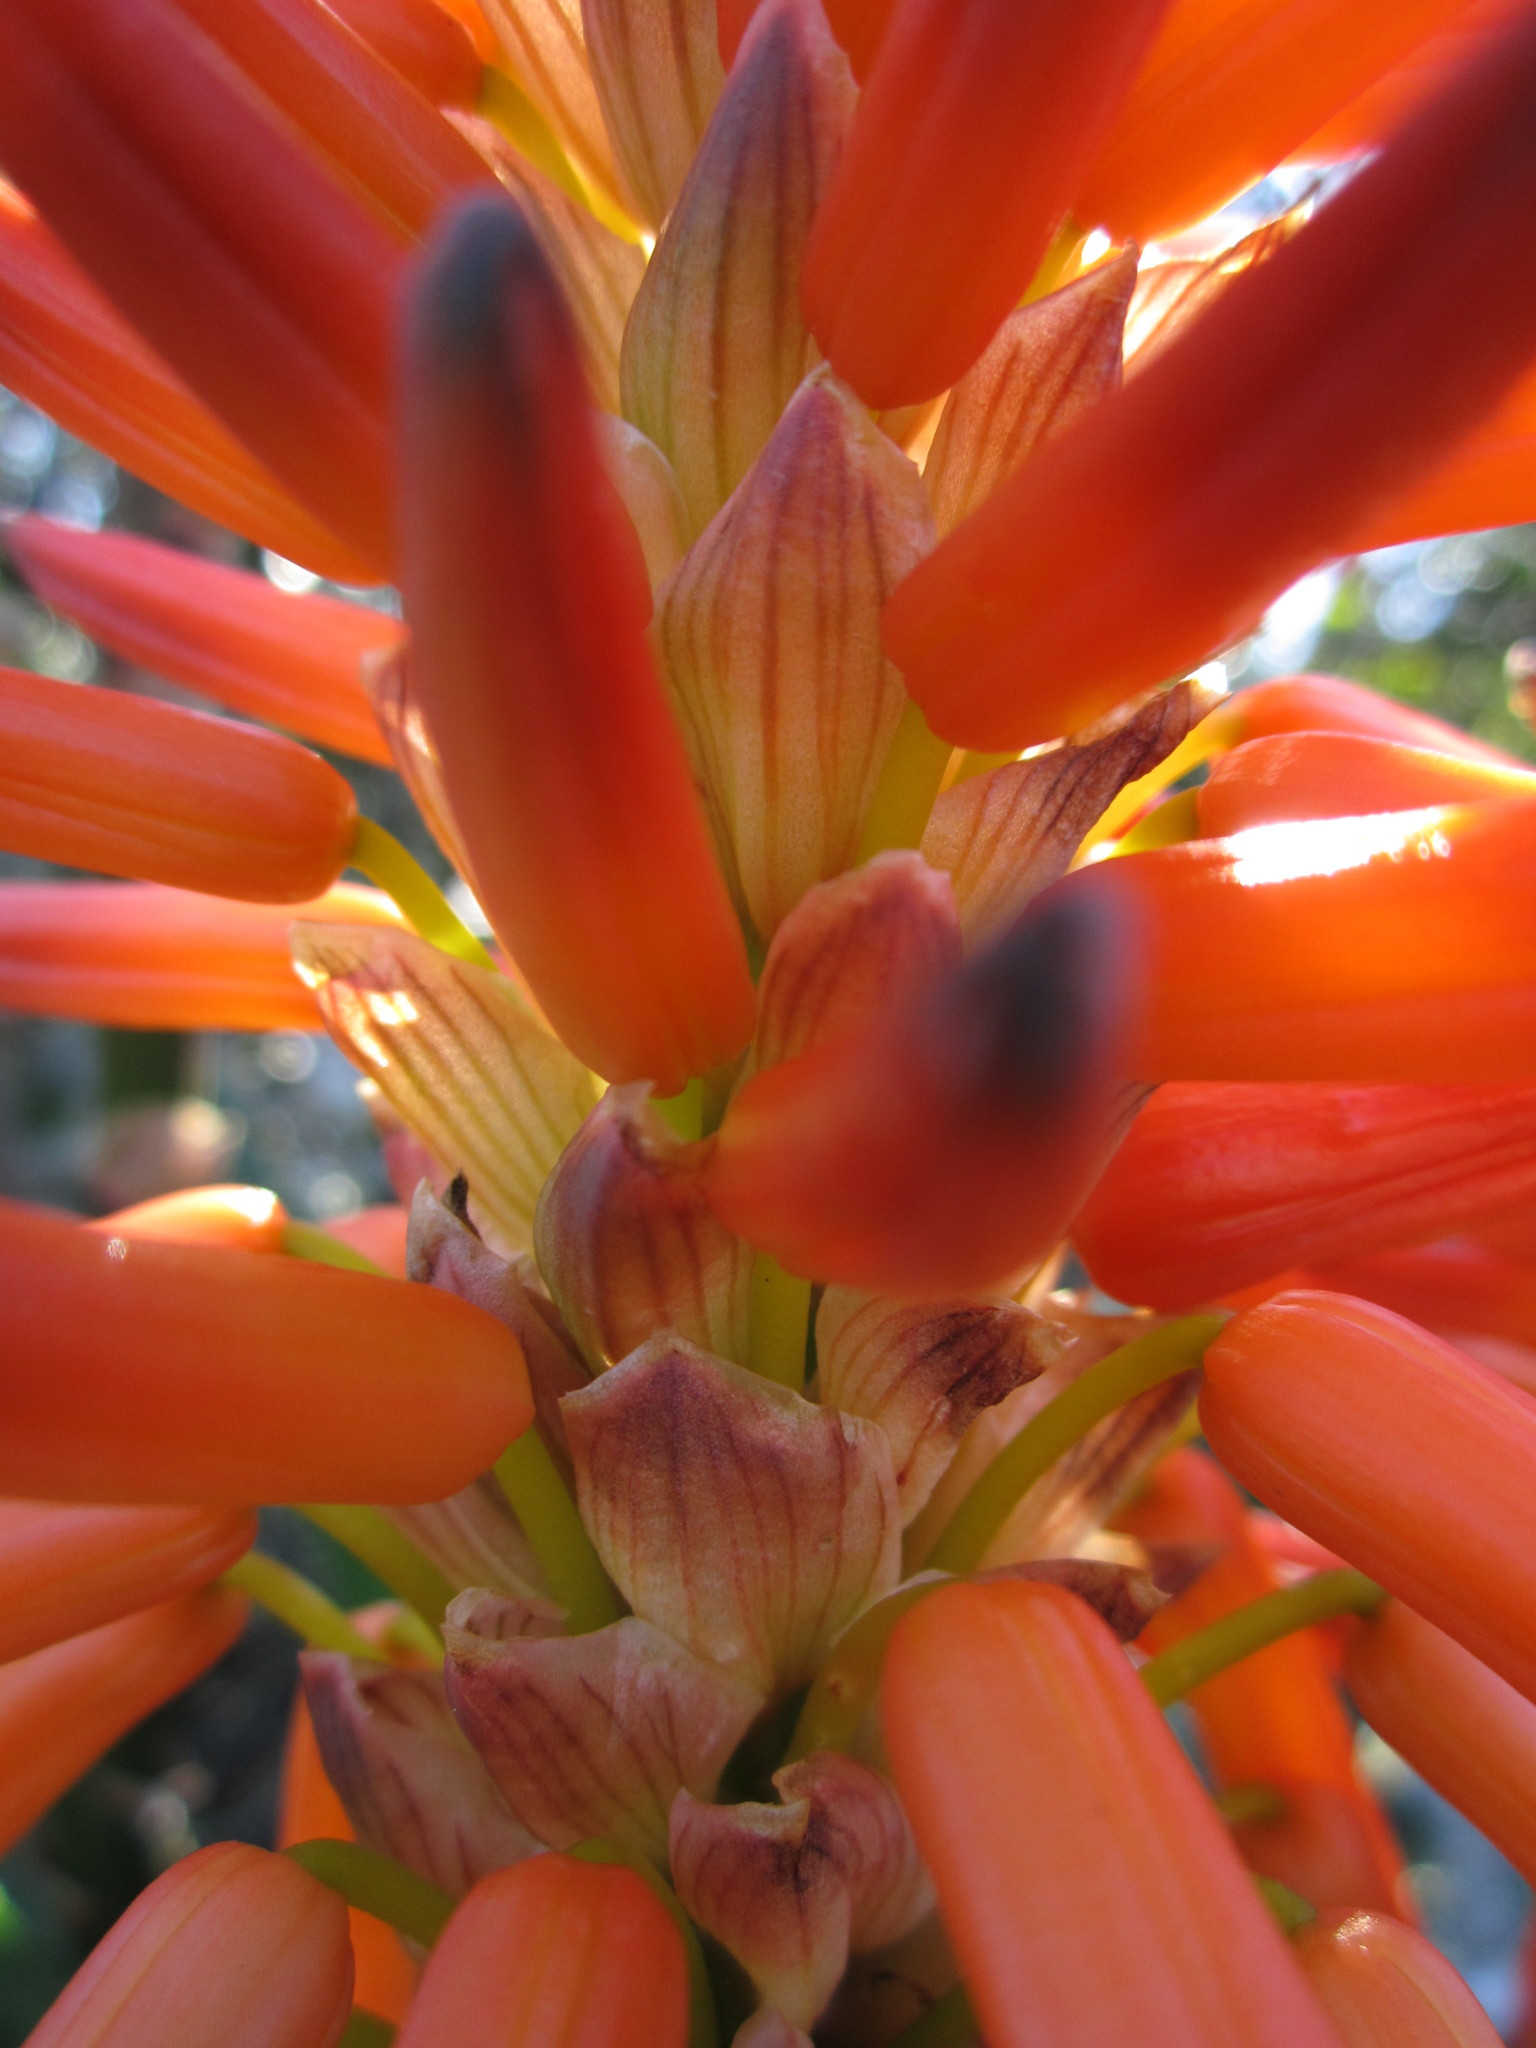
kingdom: Plantae
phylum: Tracheophyta
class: Liliopsida
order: Asparagales
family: Asphodelaceae
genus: Aloe
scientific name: Aloe pluridens
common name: French aloe
